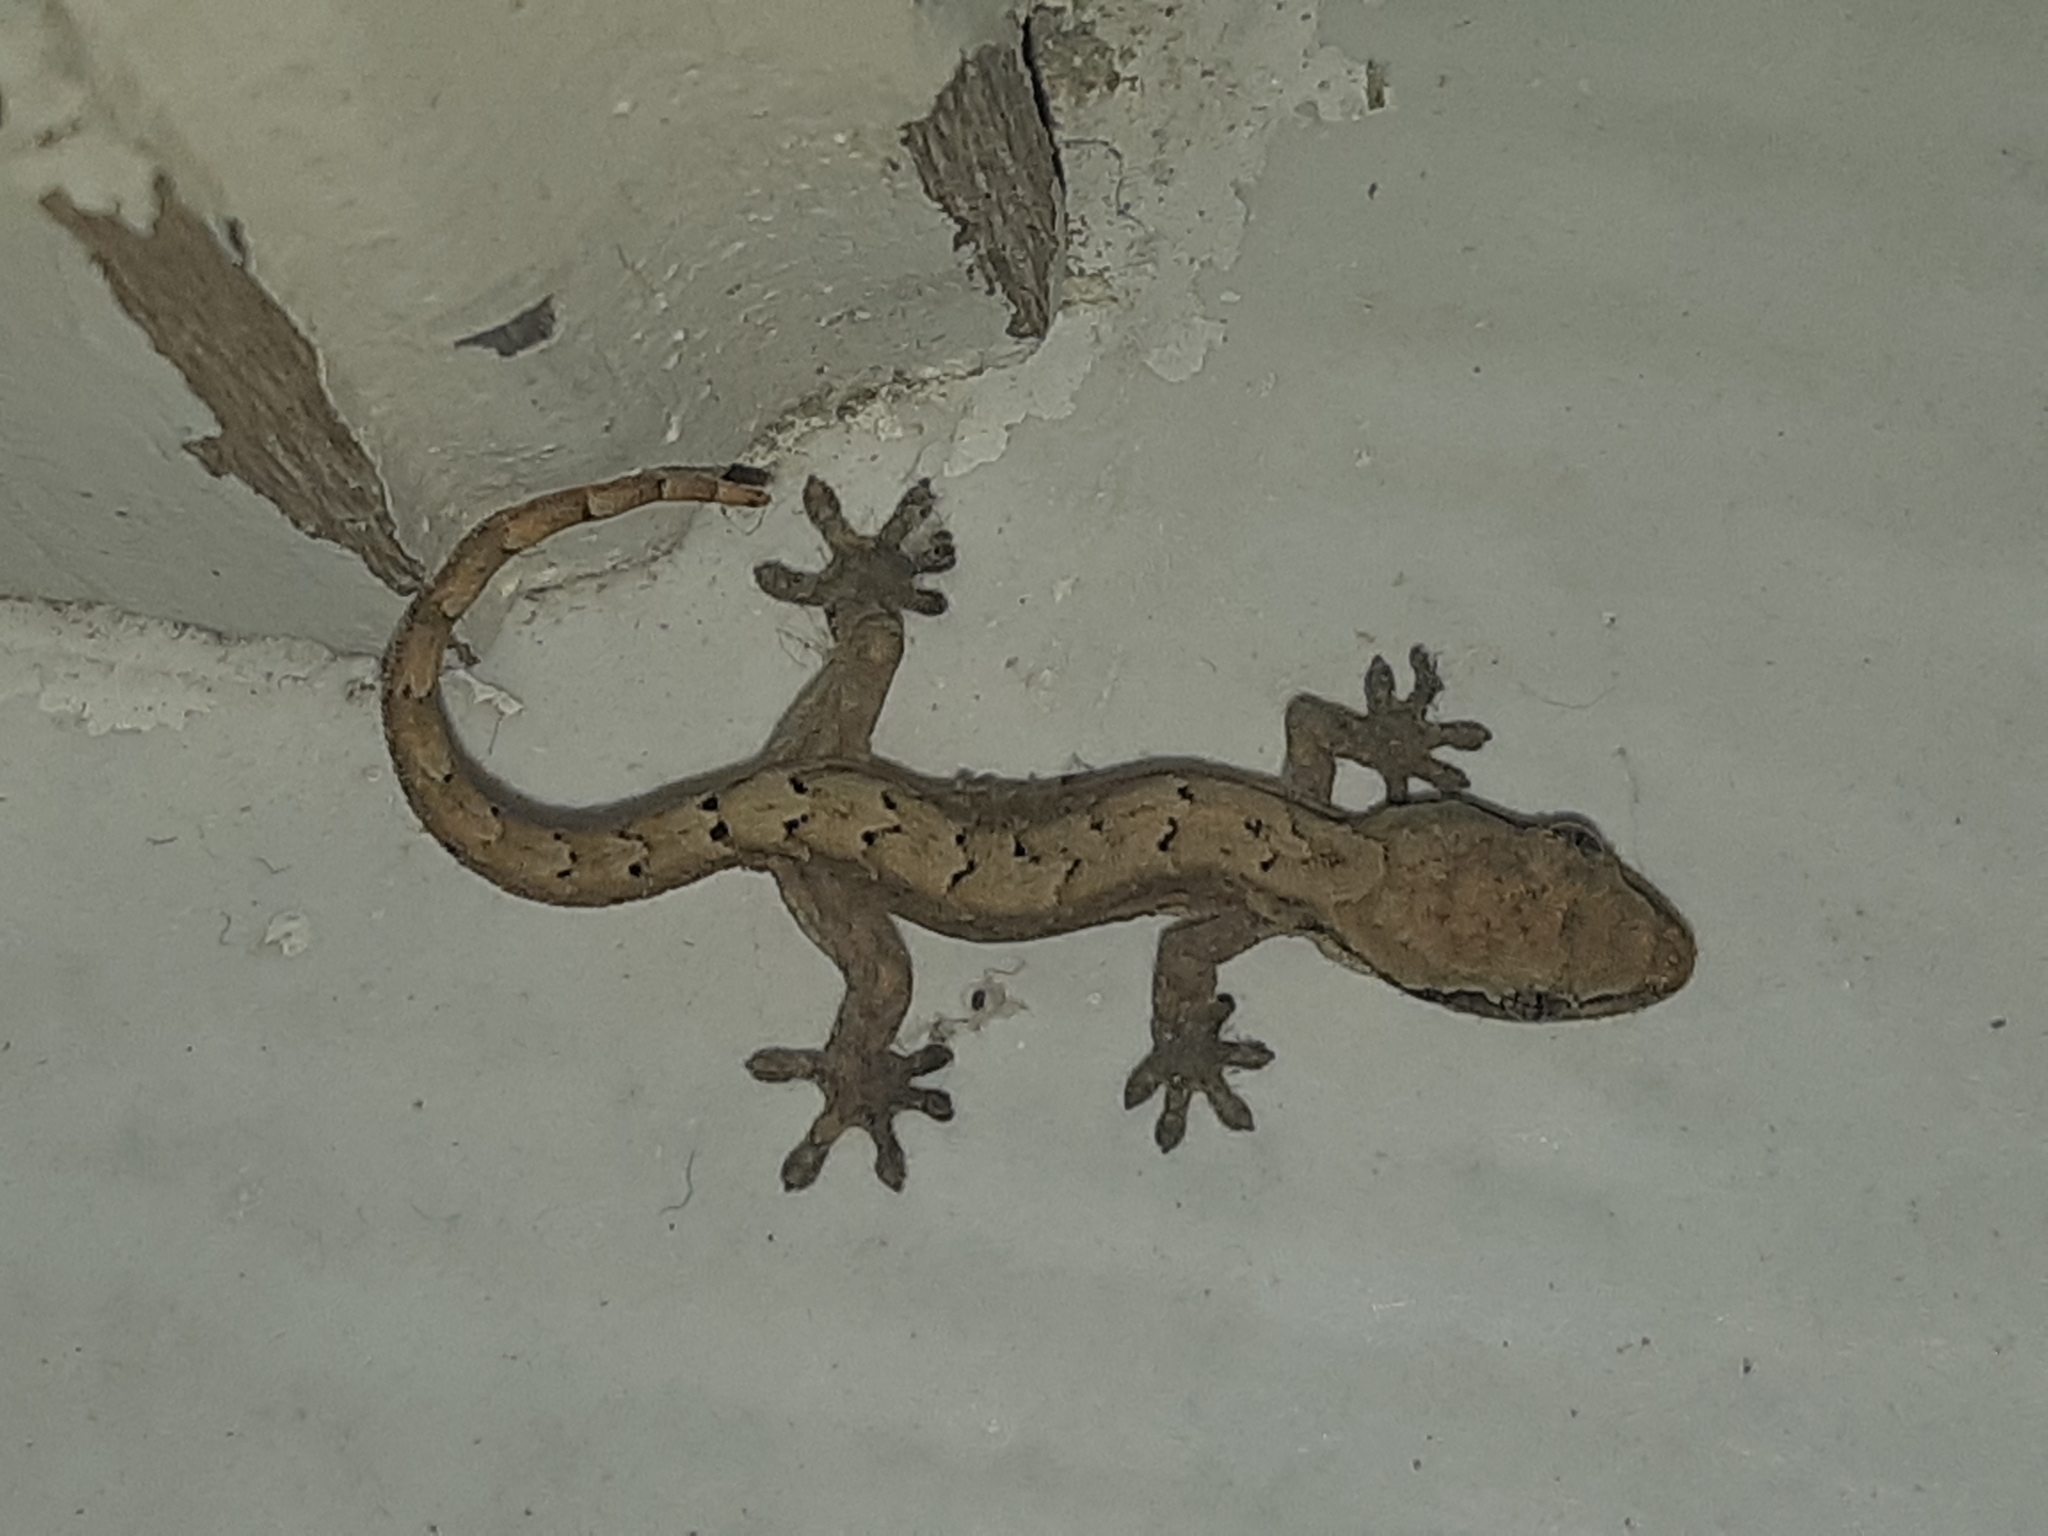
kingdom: Animalia
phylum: Chordata
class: Squamata
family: Gekkonidae
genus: Lepidodactylus
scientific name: Lepidodactylus lugubris
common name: Mourning gecko
